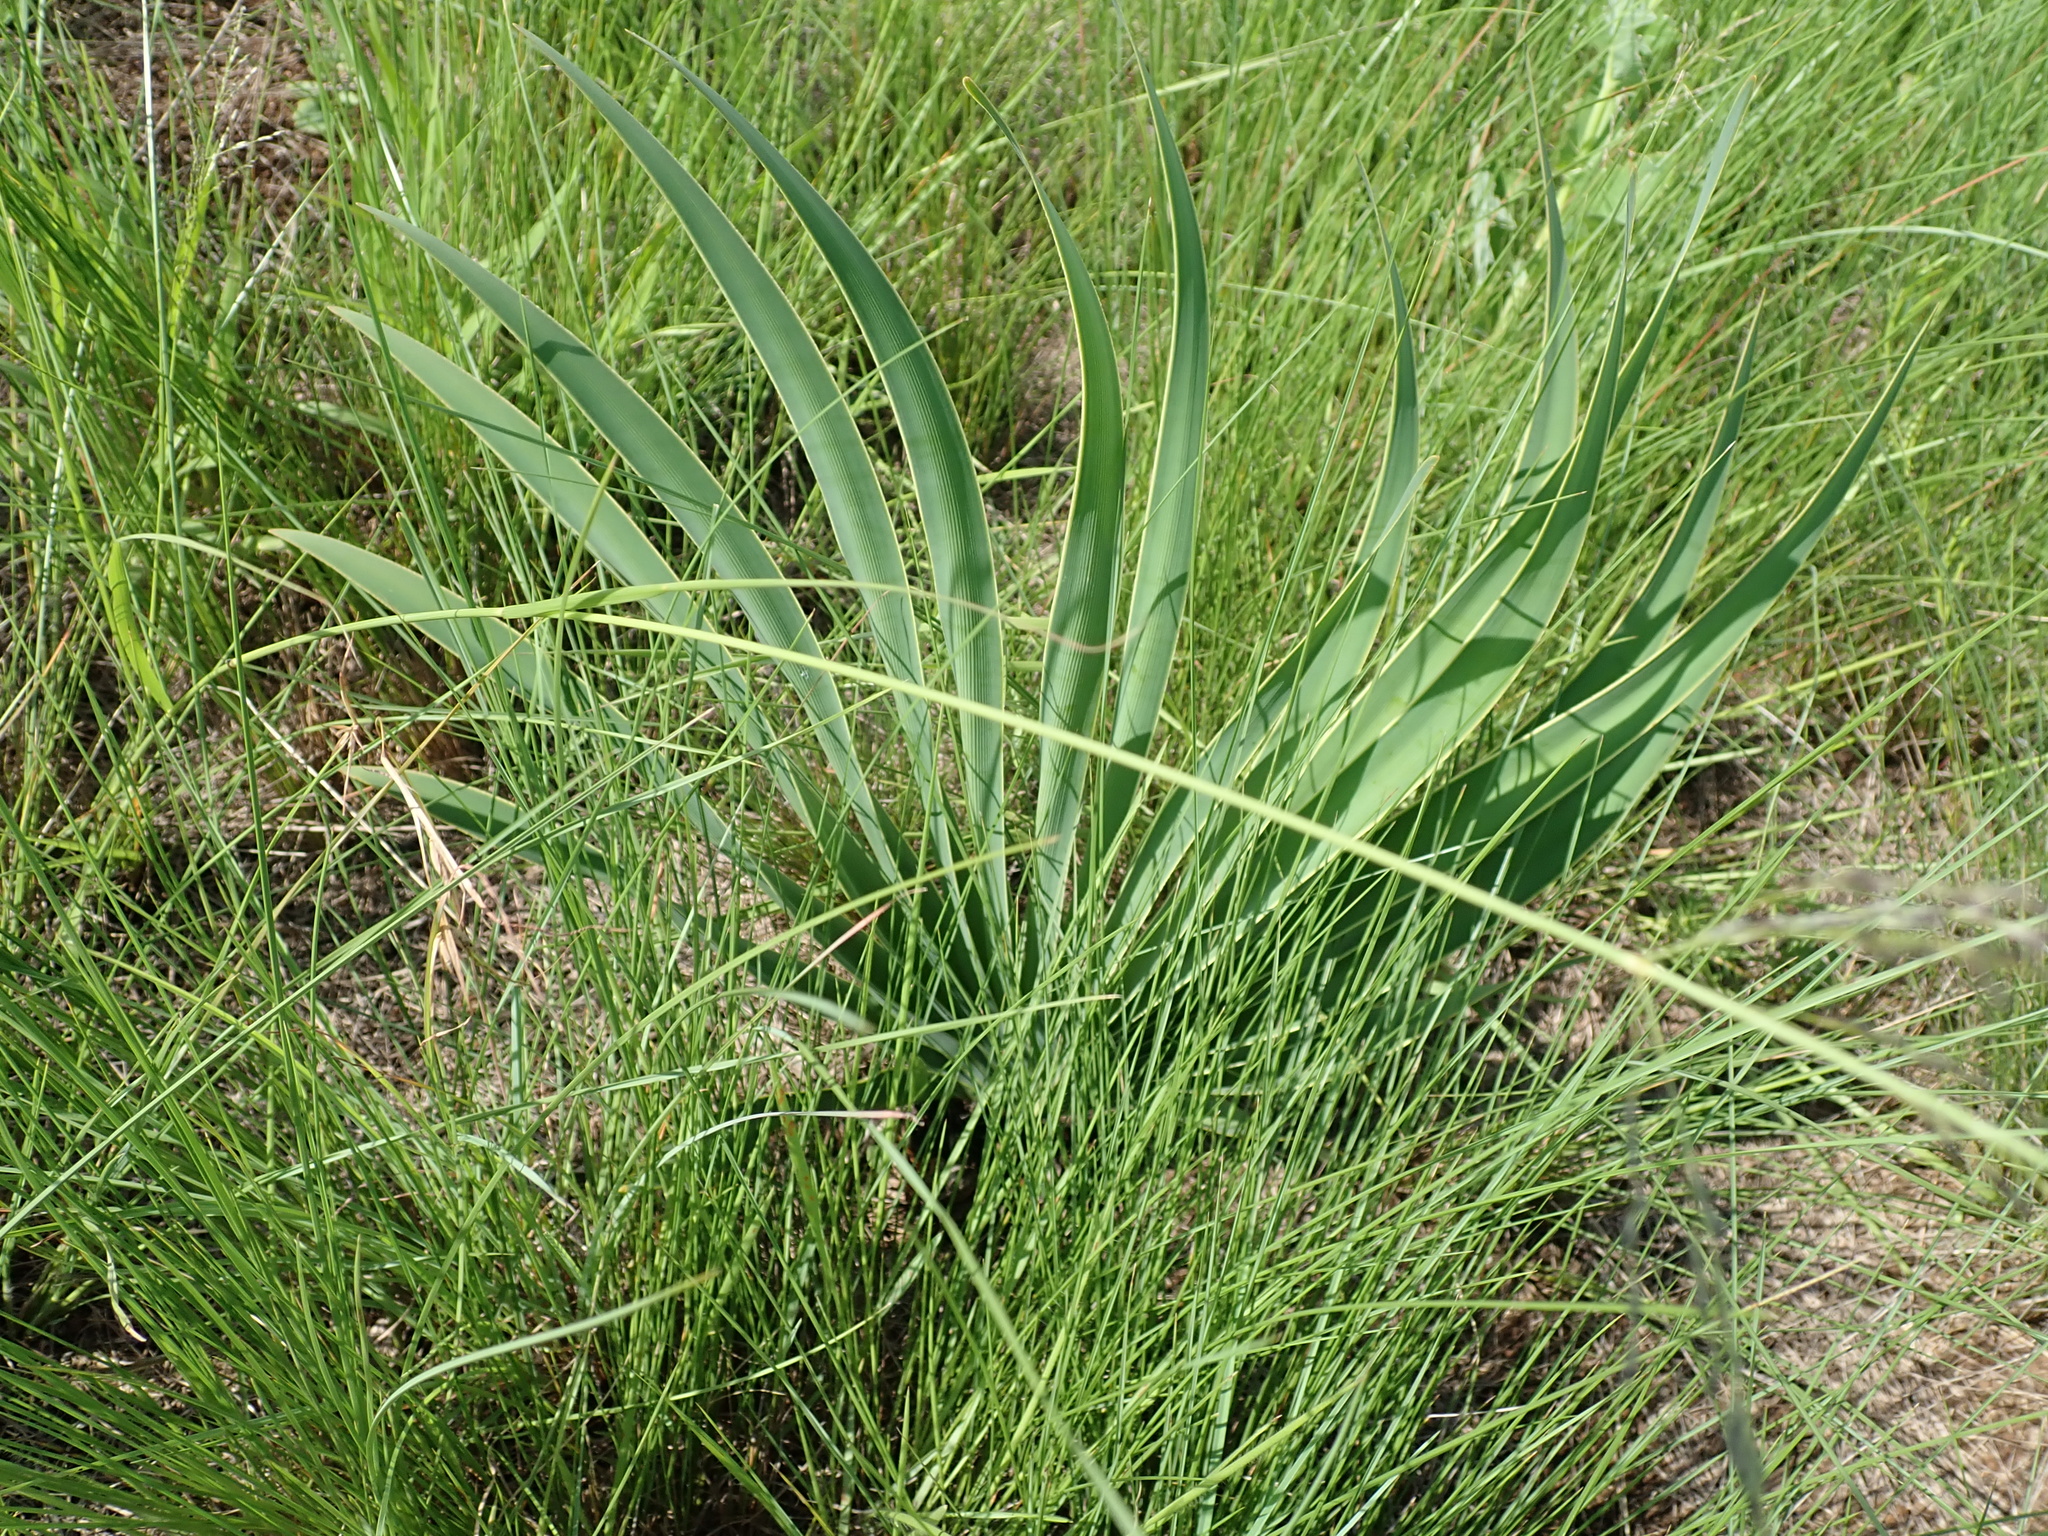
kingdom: Plantae
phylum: Tracheophyta
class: Liliopsida
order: Asparagales
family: Amaryllidaceae
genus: Boophone
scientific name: Boophone disticha
